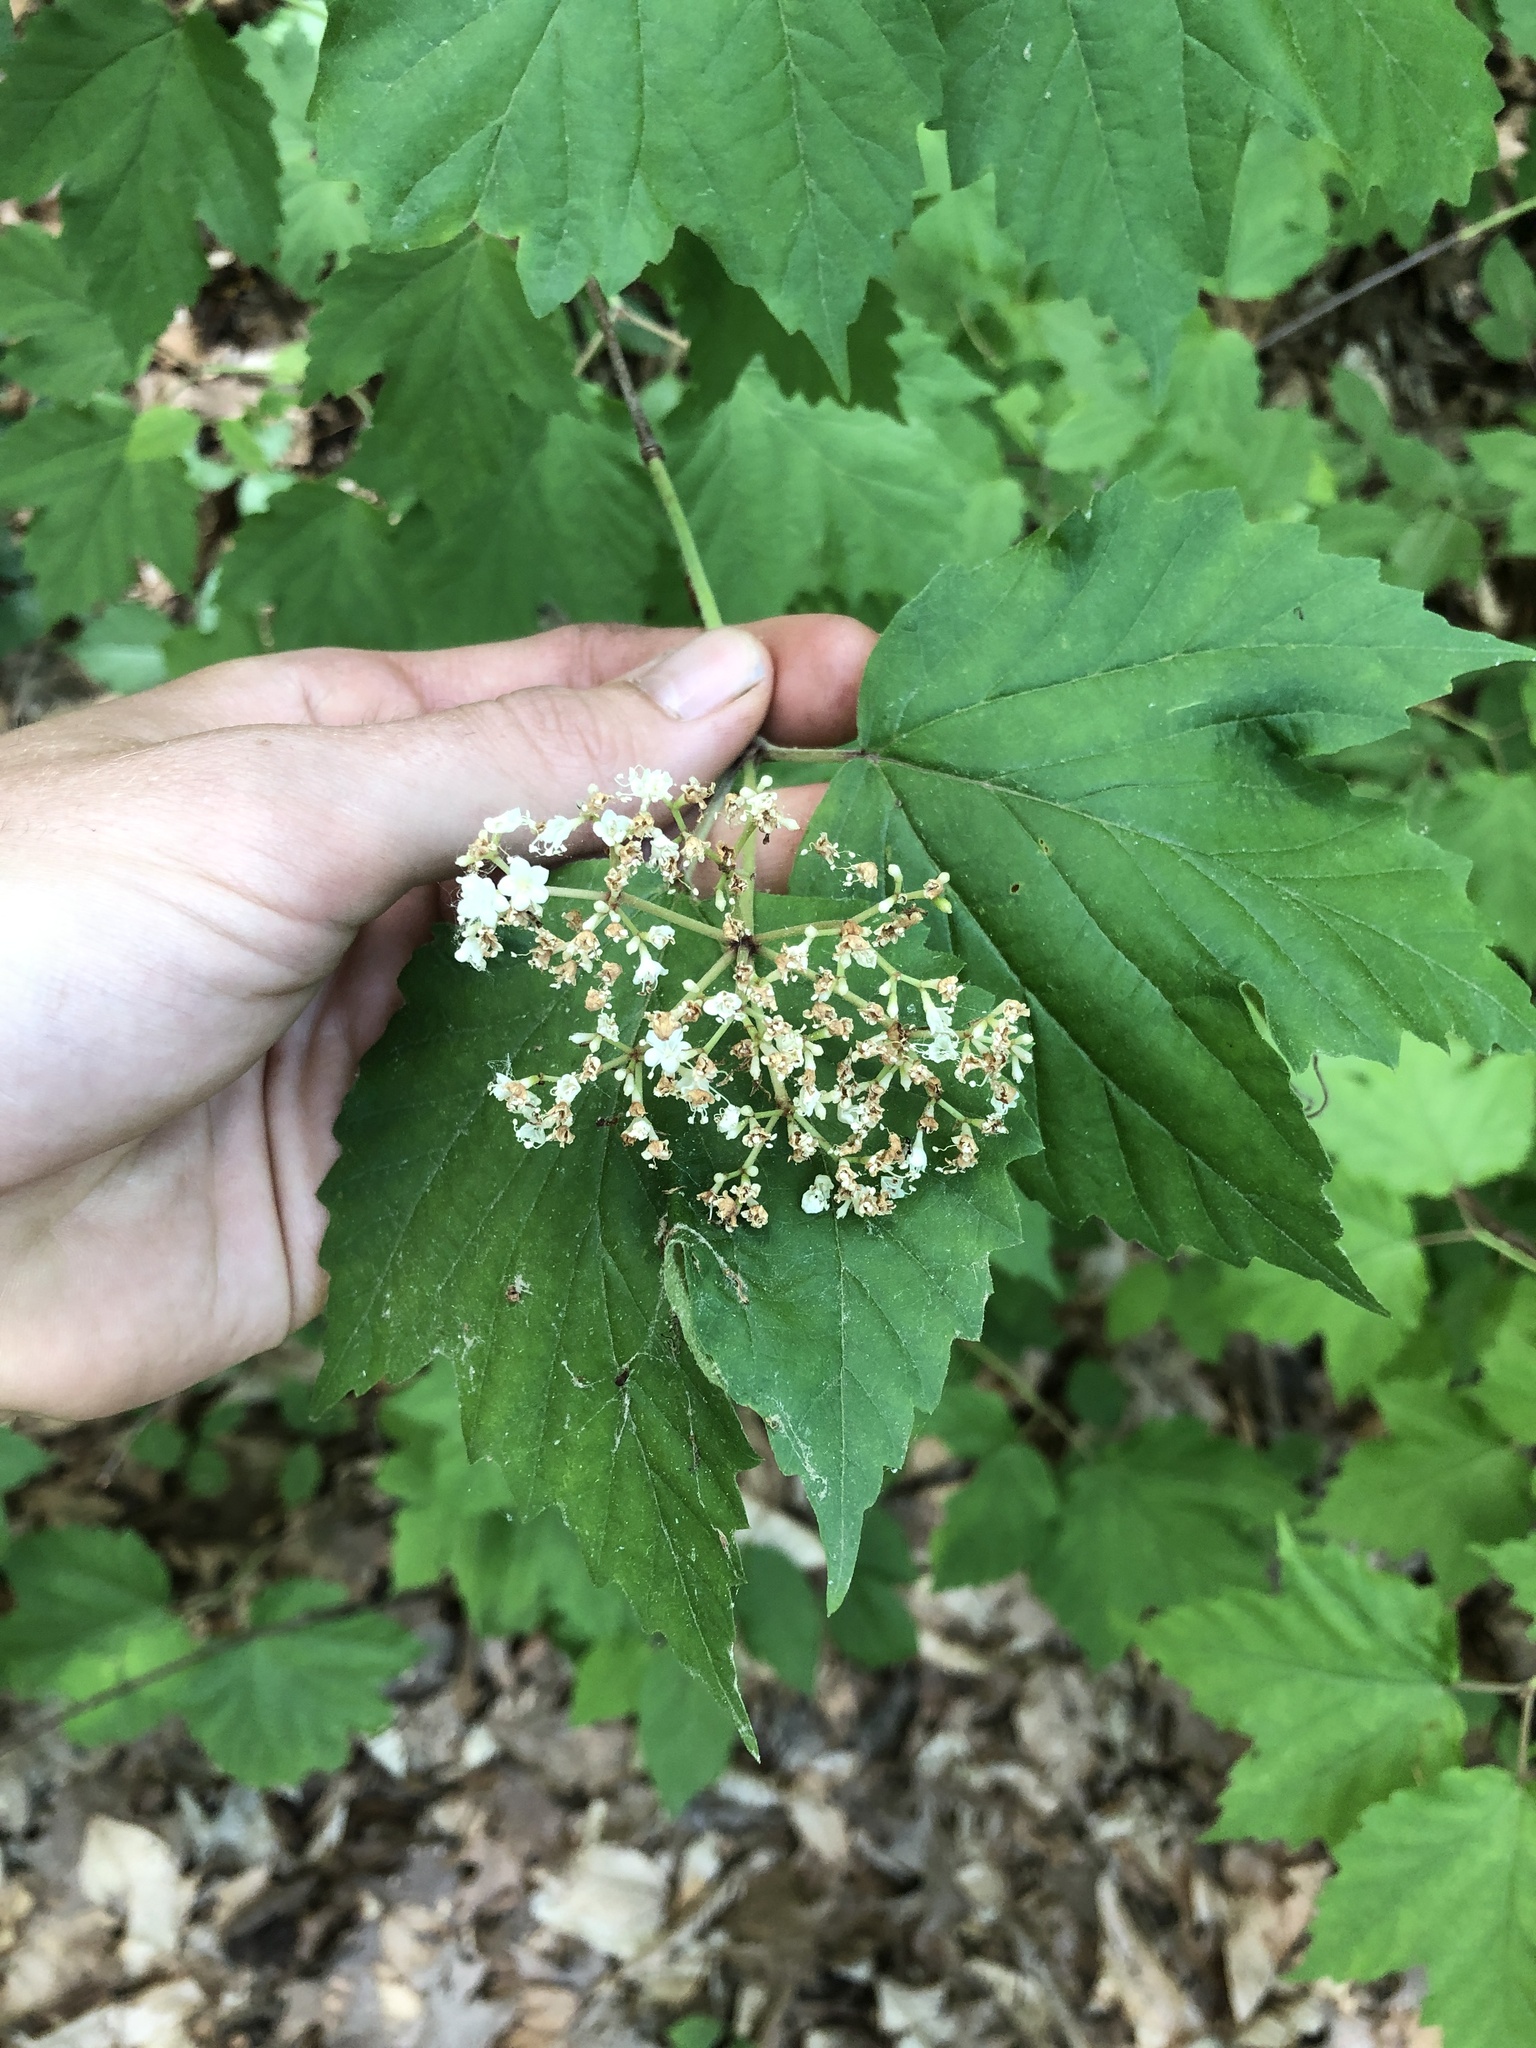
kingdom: Plantae
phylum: Tracheophyta
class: Magnoliopsida
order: Dipsacales
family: Viburnaceae
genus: Viburnum
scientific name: Viburnum acerifolium
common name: Dockmackie
